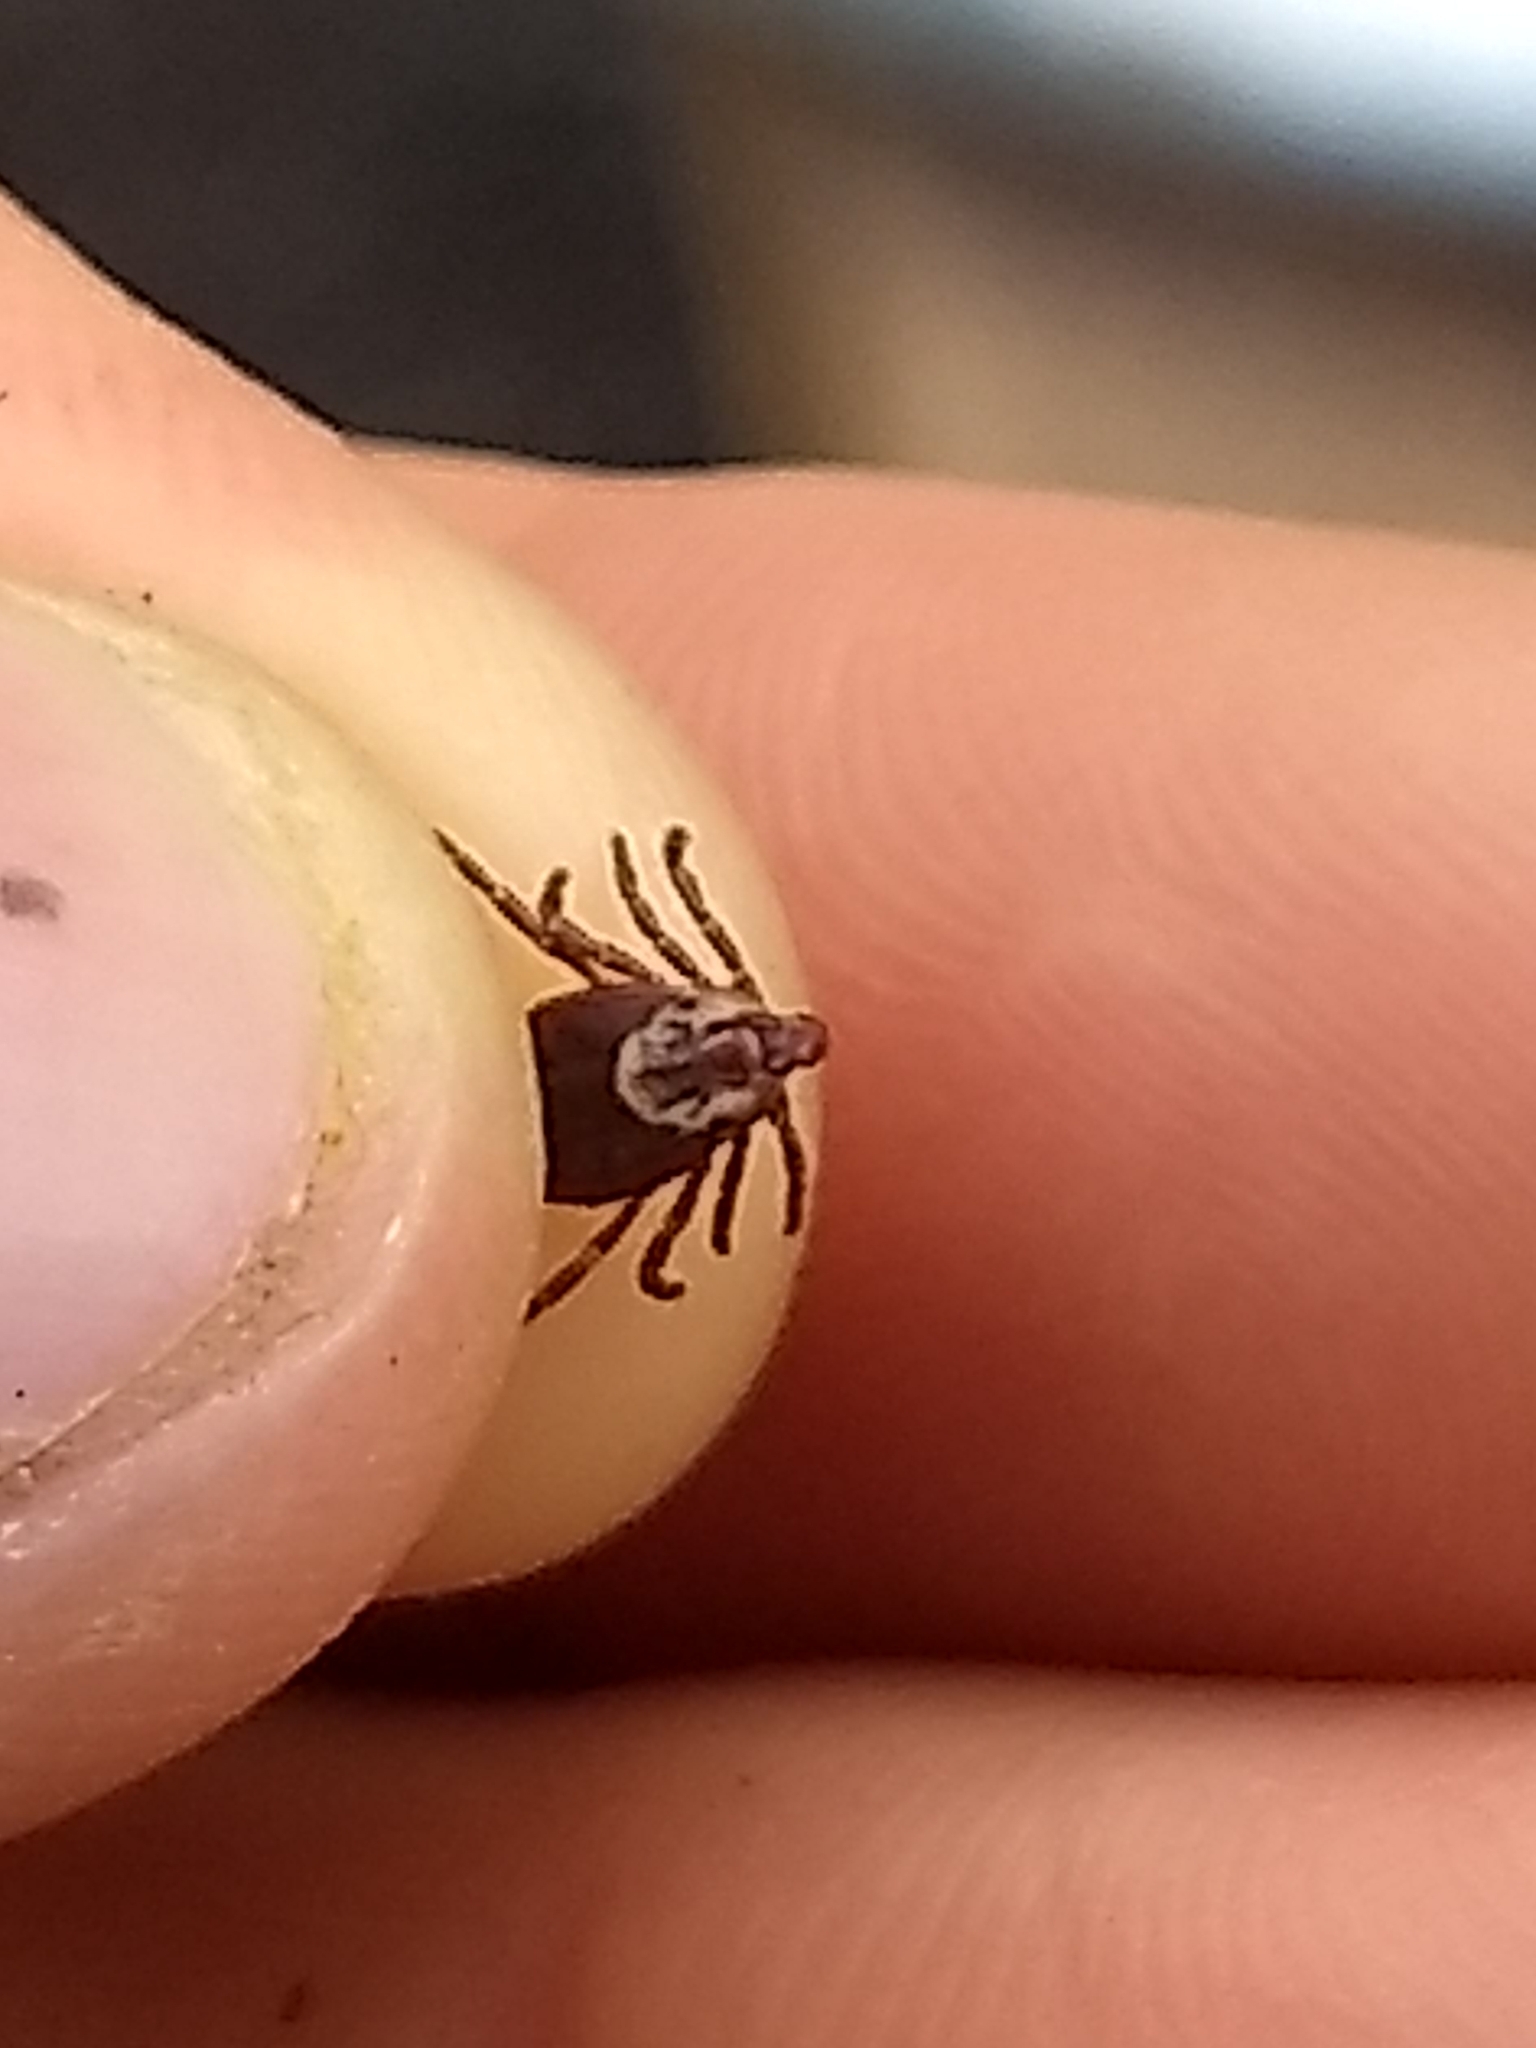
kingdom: Animalia
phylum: Arthropoda
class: Arachnida
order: Ixodida
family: Ixodidae
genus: Dermacentor
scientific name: Dermacentor variabilis
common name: American dog tick
